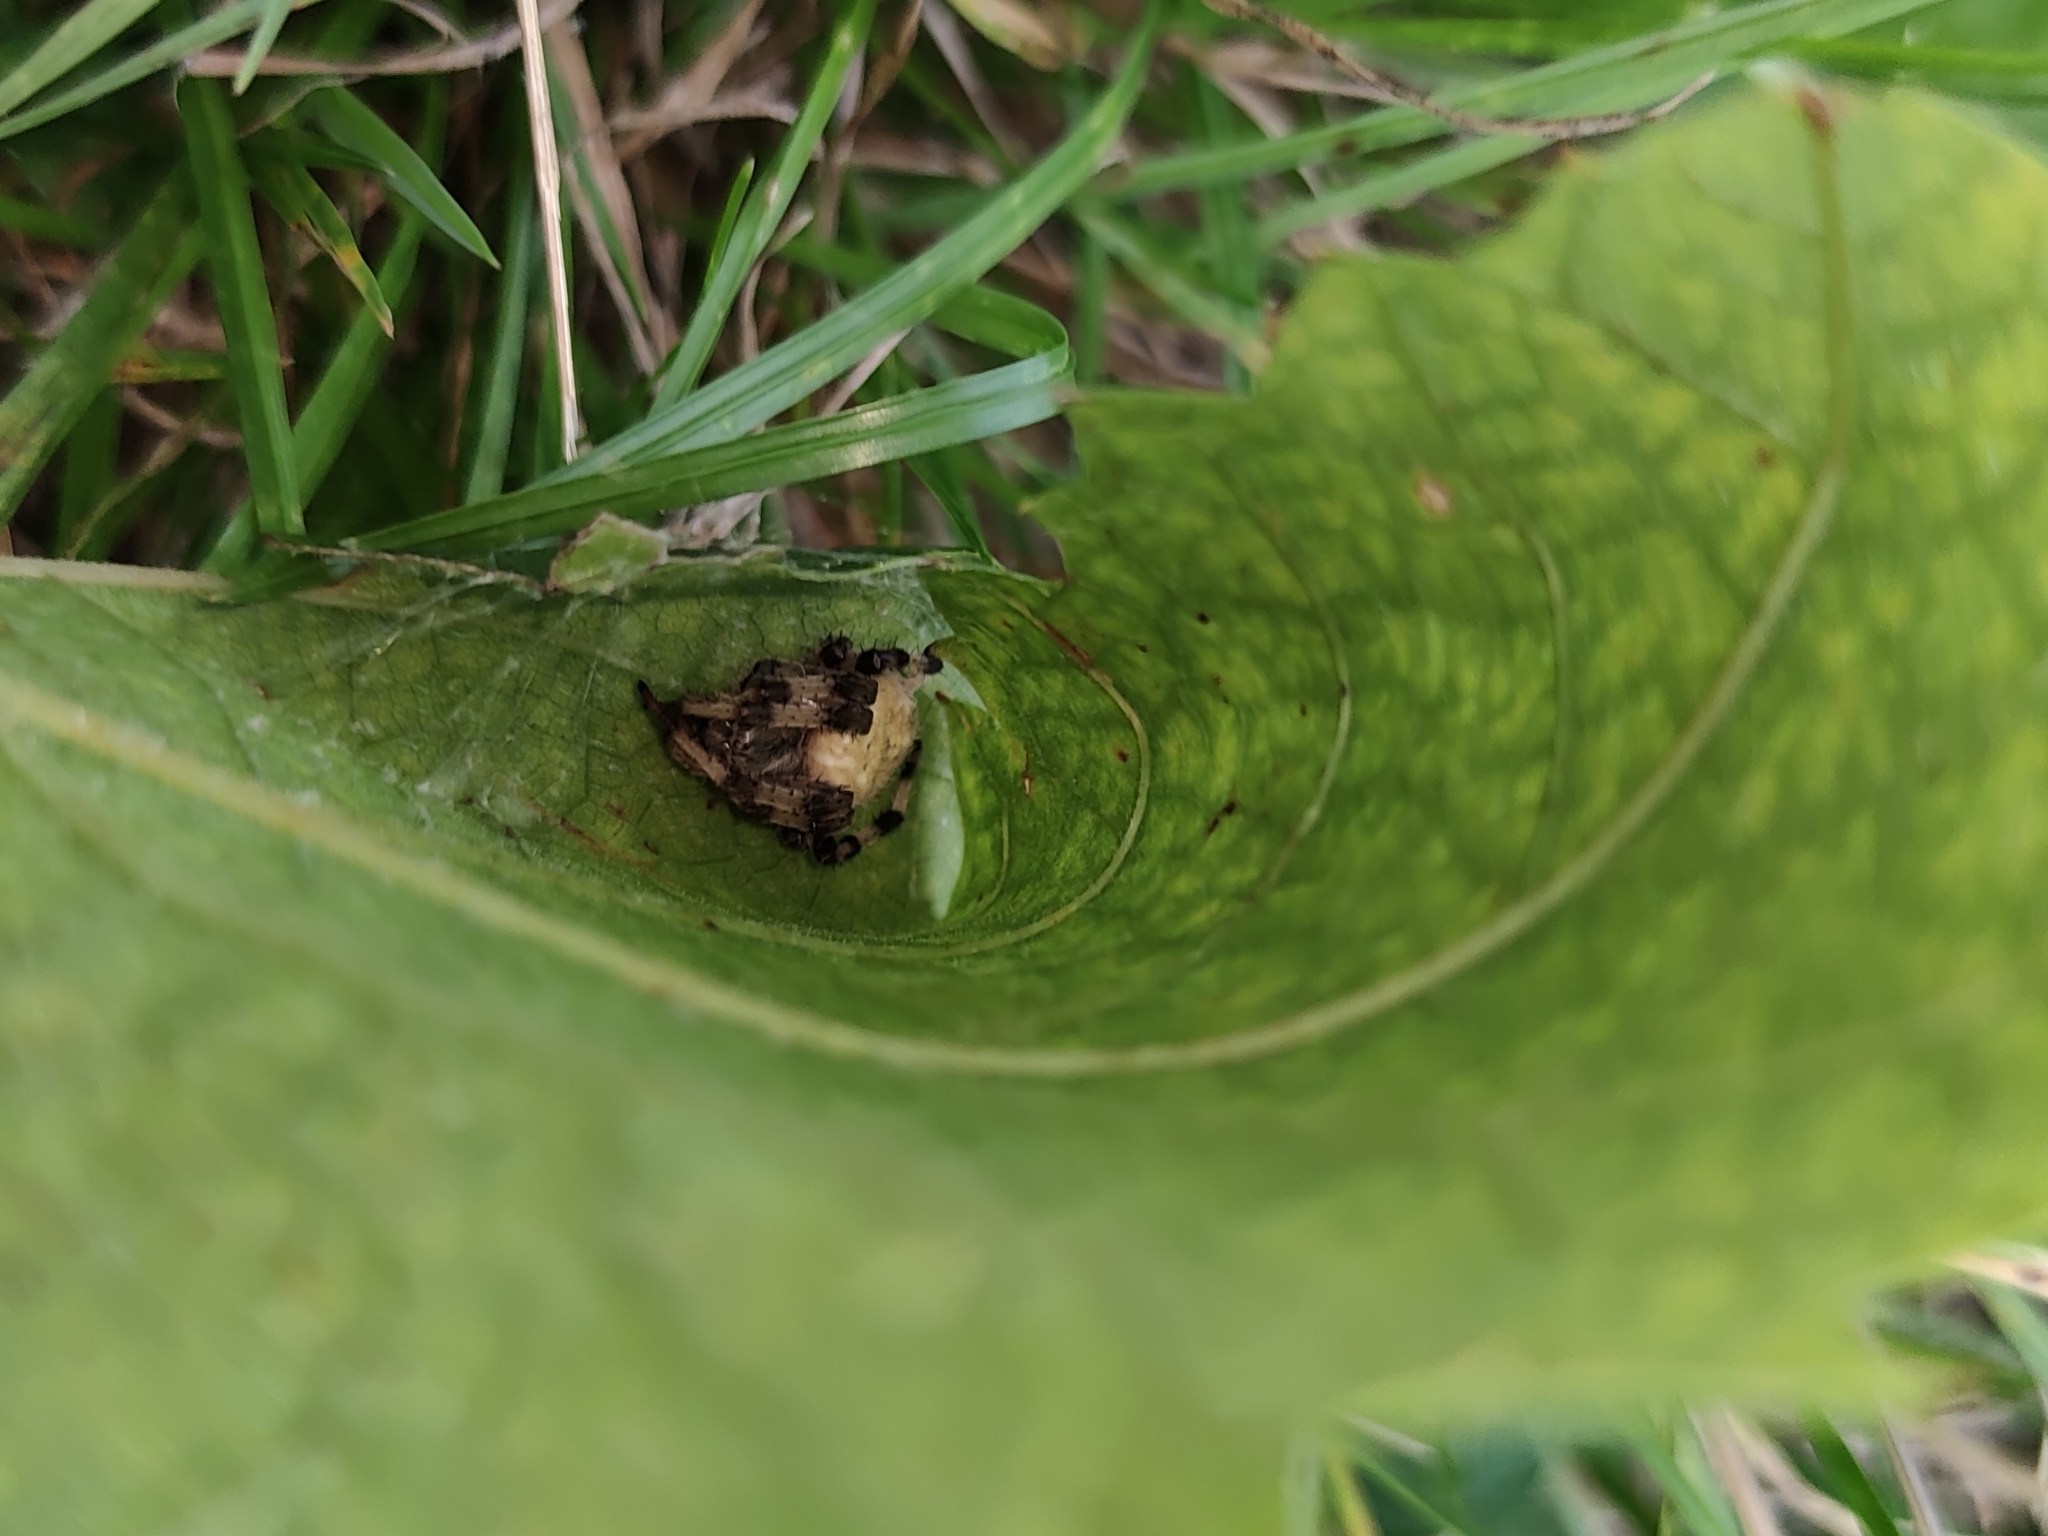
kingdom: Animalia
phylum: Arthropoda
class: Arachnida
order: Araneae
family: Araneidae
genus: Araneus
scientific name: Araneus quadratus
